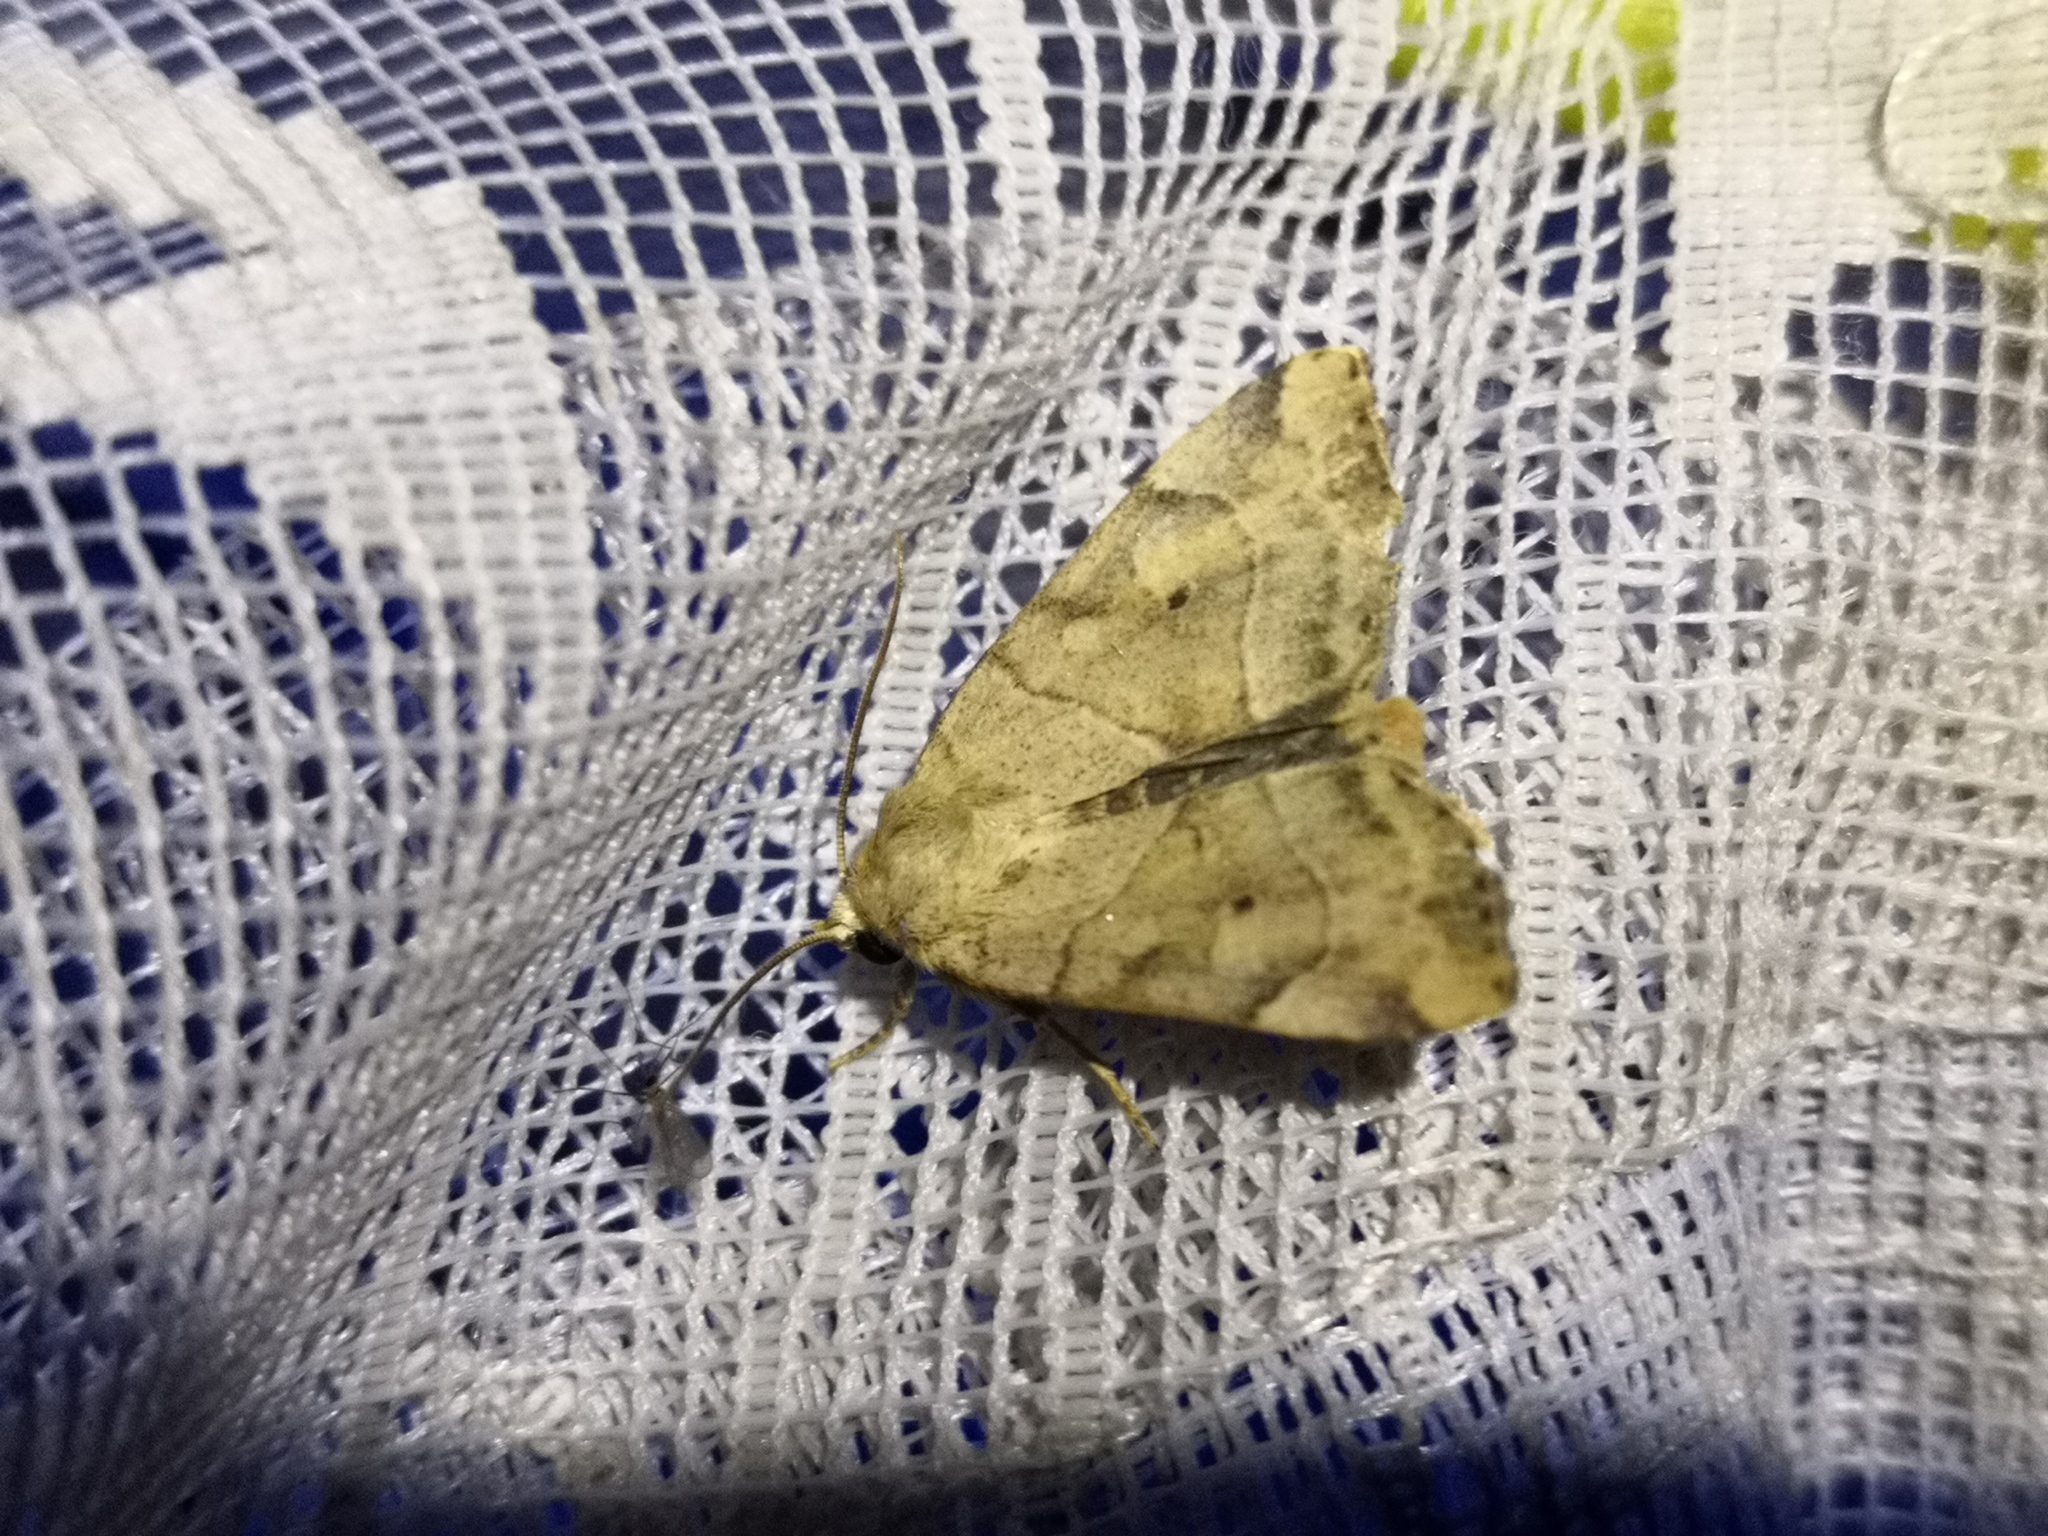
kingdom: Animalia
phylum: Arthropoda
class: Insecta
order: Lepidoptera
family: Noctuidae
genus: Cosmia
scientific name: Cosmia trapezina
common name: Dun-bar
